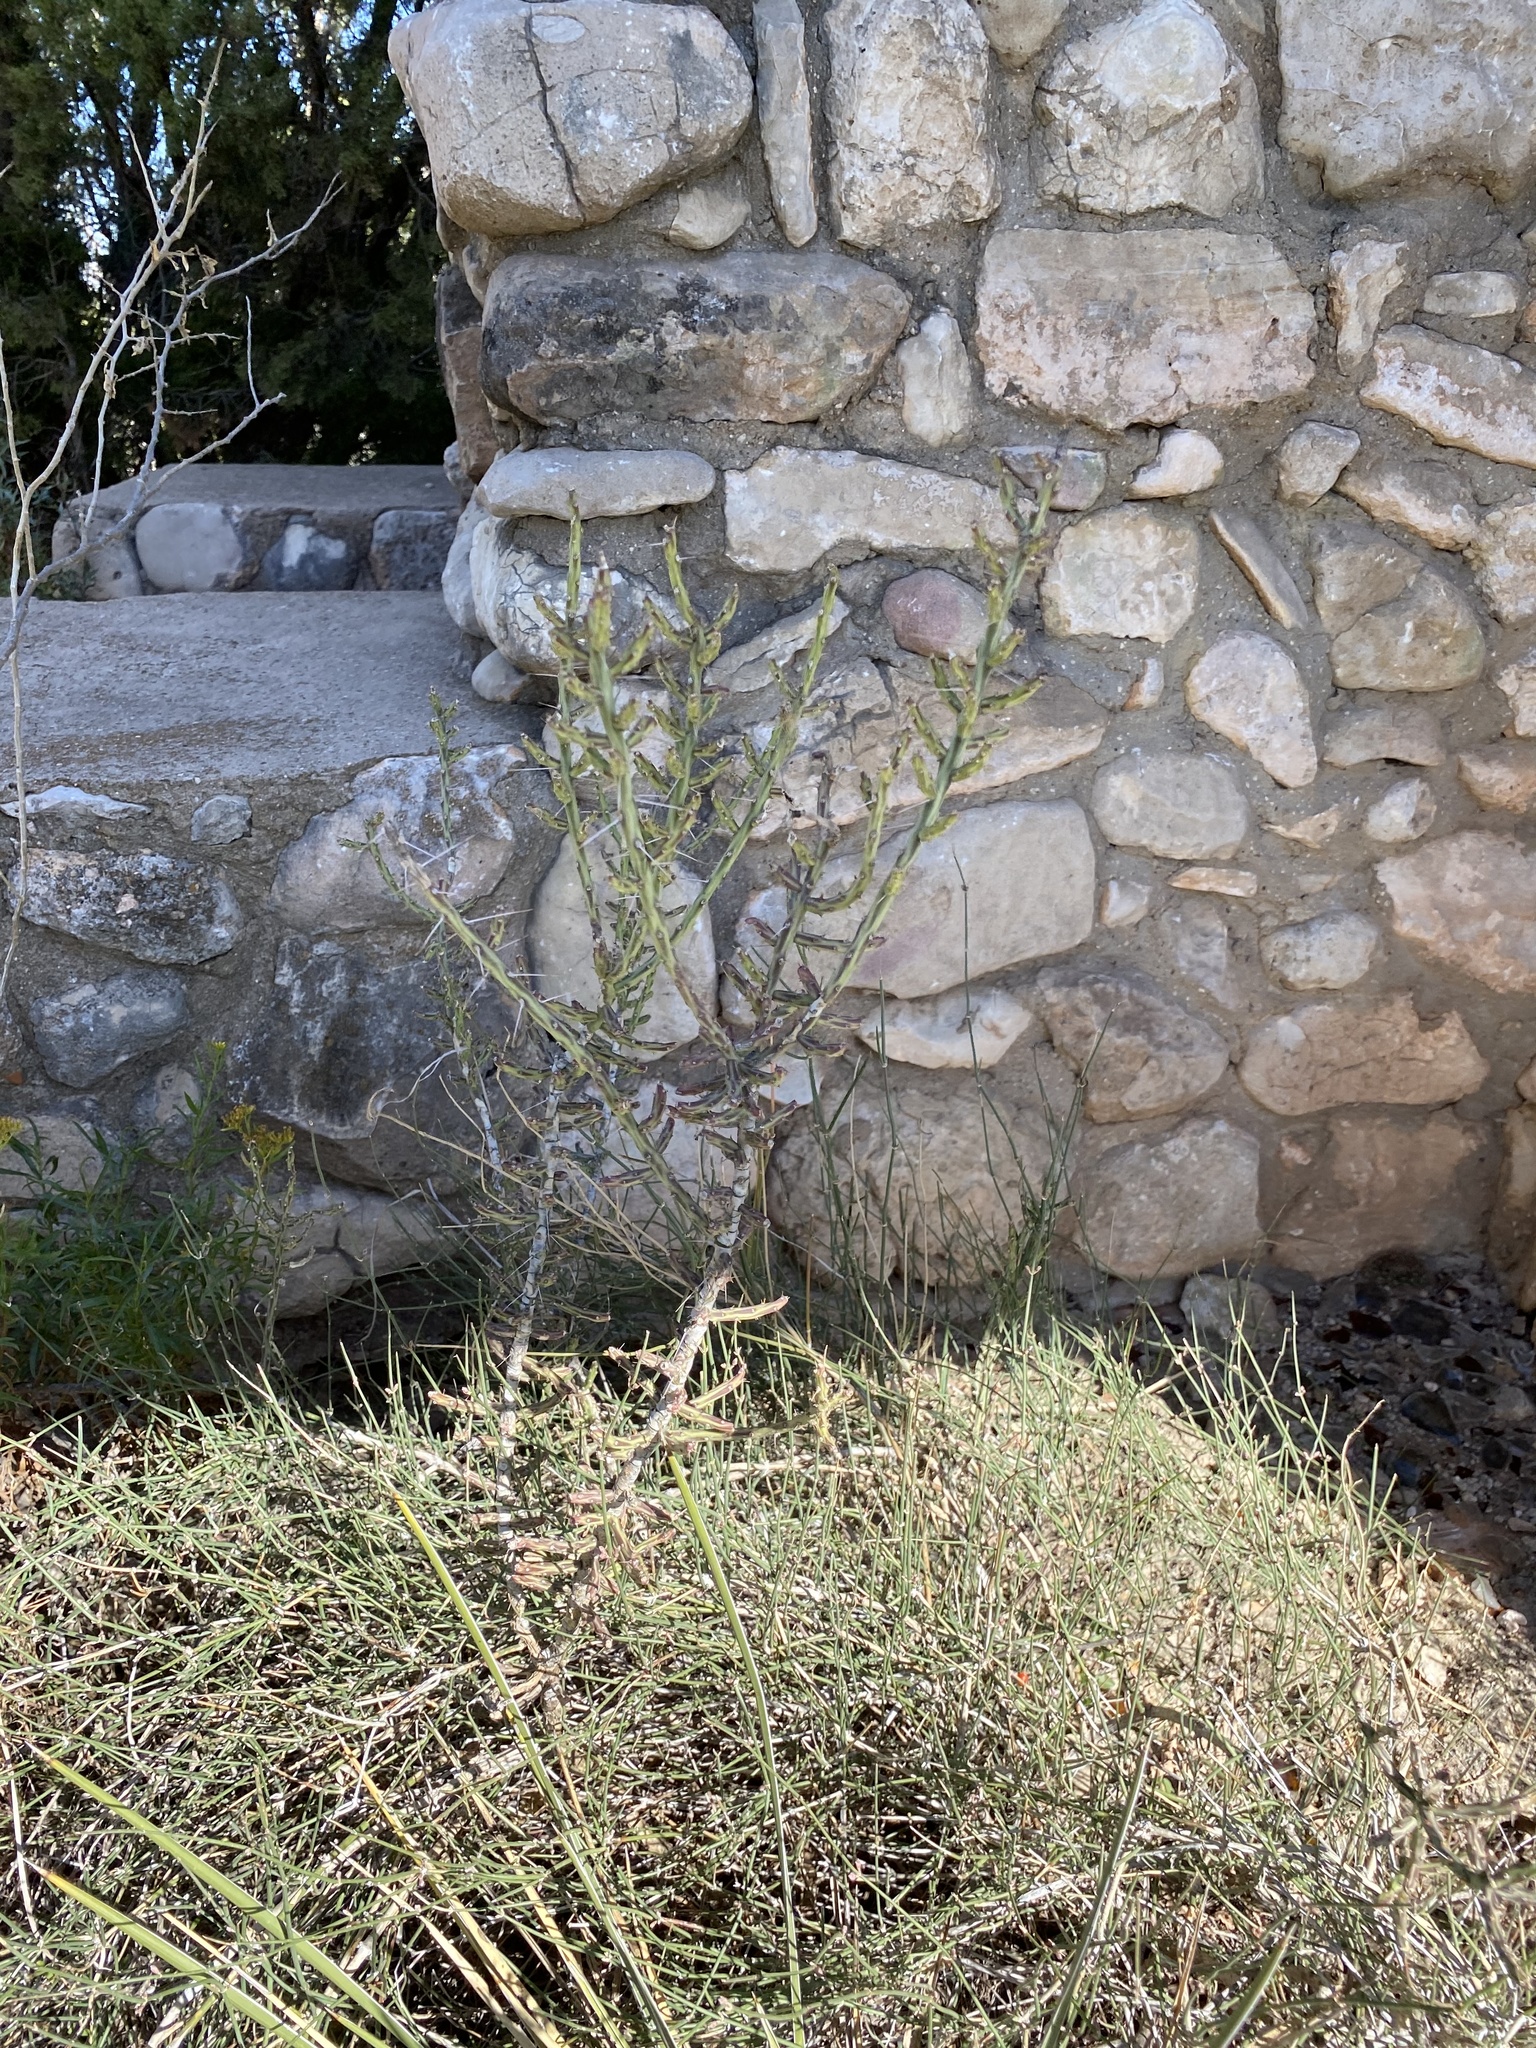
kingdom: Plantae
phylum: Tracheophyta
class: Magnoliopsida
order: Caryophyllales
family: Cactaceae
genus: Cylindropuntia
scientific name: Cylindropuntia leptocaulis
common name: Christmas cactus
